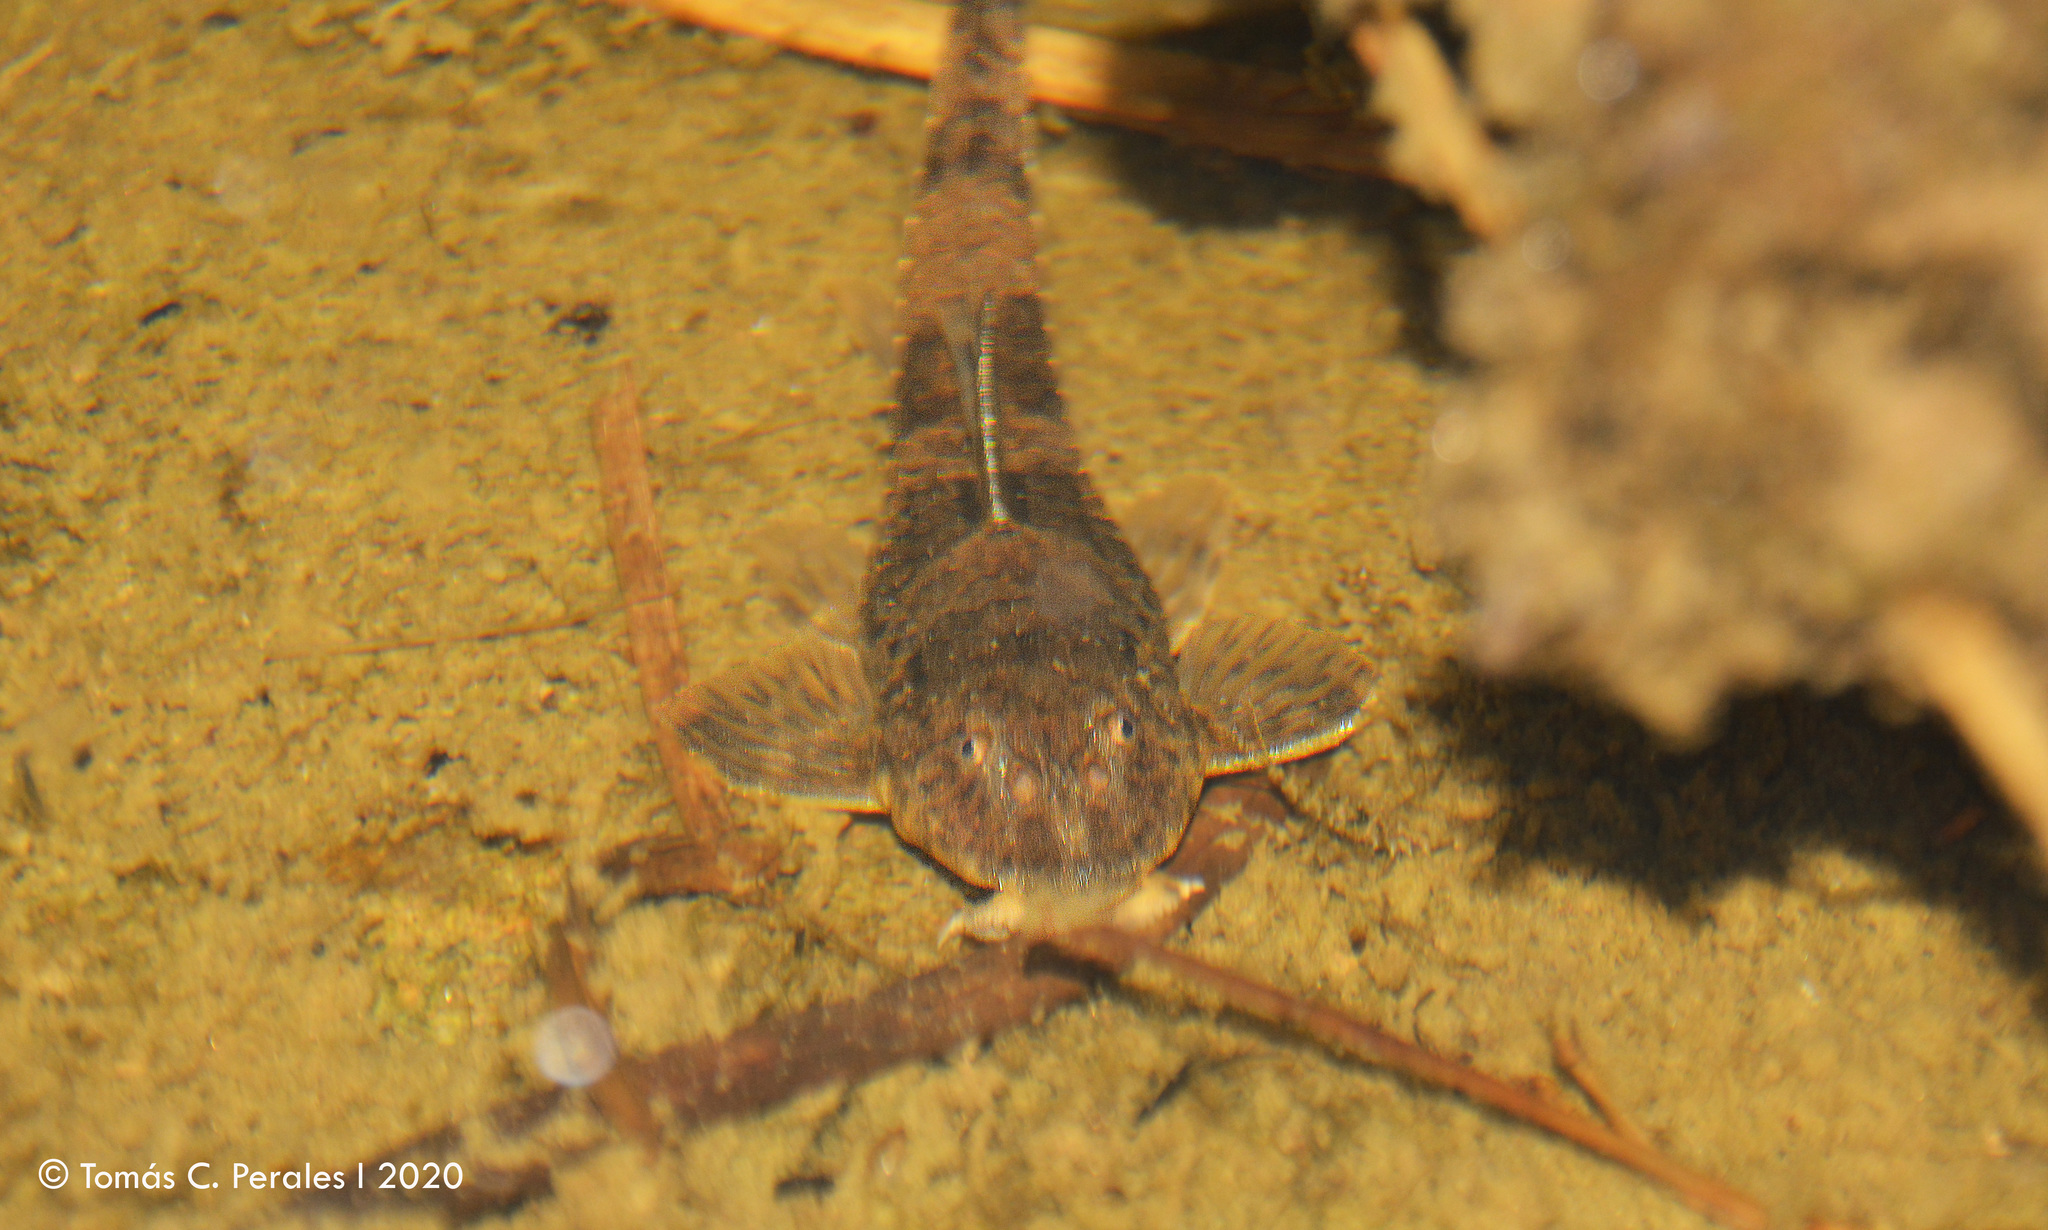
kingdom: Animalia
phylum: Chordata
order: Siluriformes
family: Loricariidae
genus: Rineloricaria
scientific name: Rineloricaria catamarcensis
